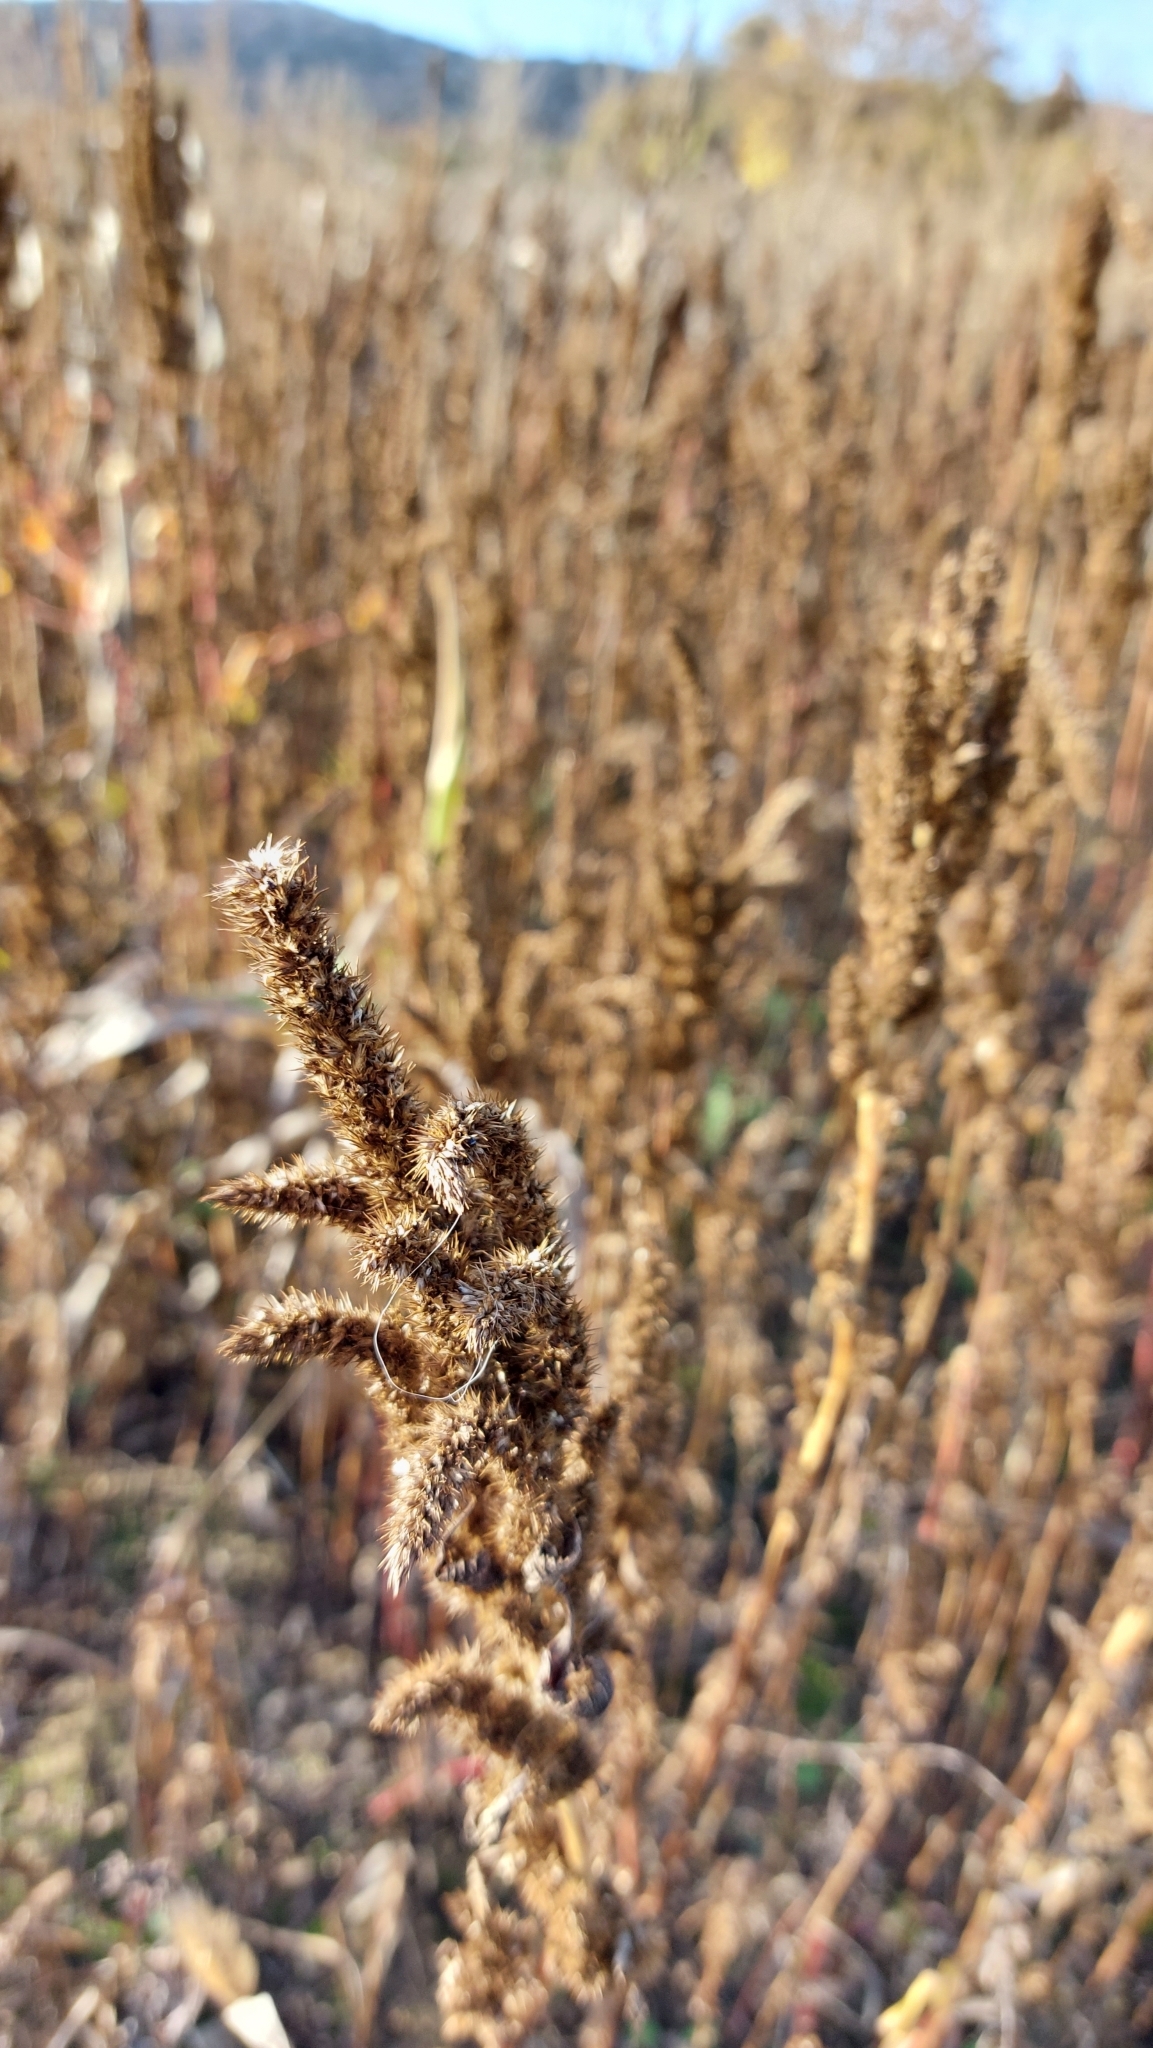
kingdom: Plantae
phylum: Tracheophyta
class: Magnoliopsida
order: Caryophyllales
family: Amaranthaceae
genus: Amaranthus
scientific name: Amaranthus retroflexus
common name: Redroot amaranth
